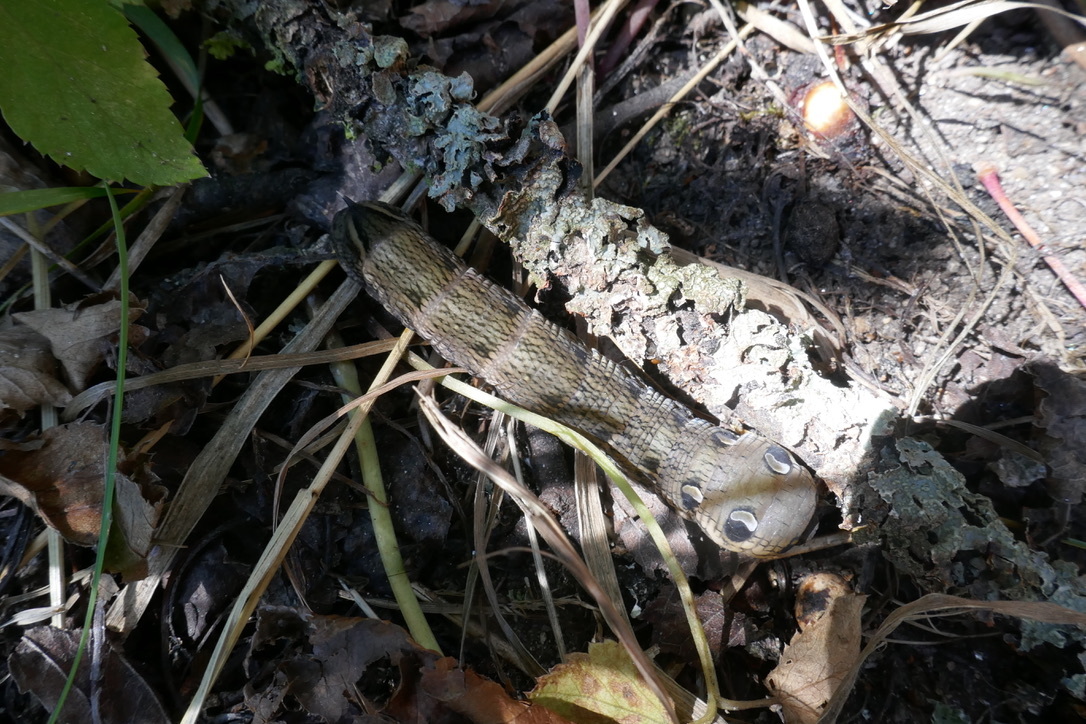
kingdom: Animalia
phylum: Arthropoda
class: Insecta
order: Lepidoptera
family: Sphingidae
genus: Deilephila
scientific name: Deilephila elpenor
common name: Elephant hawk-moth
